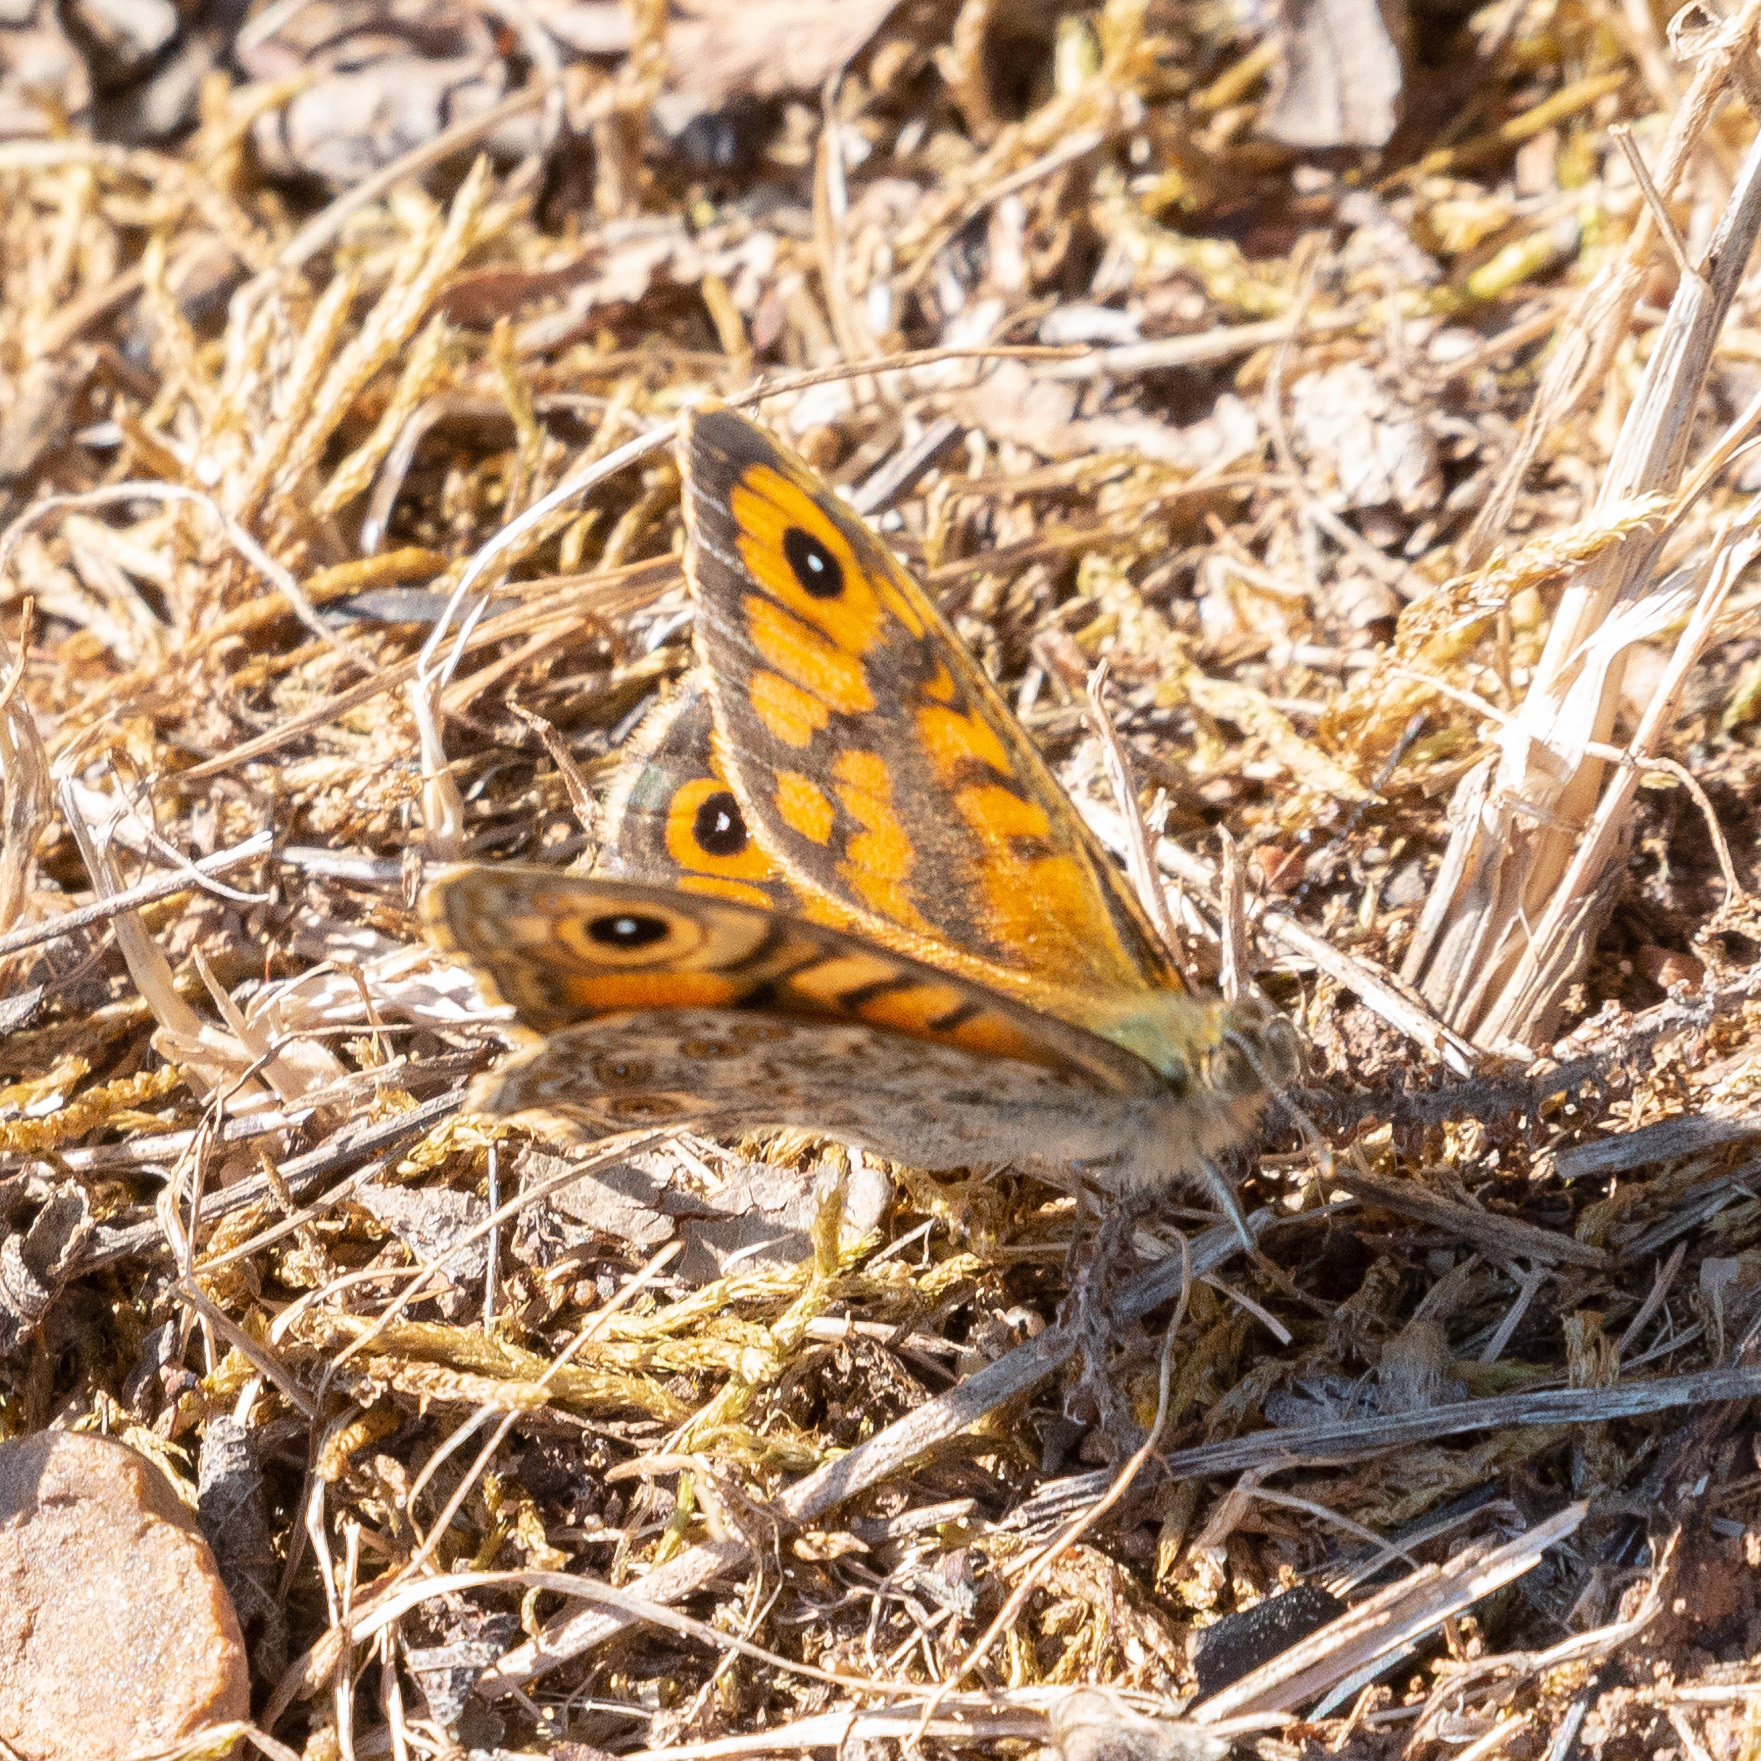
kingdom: Animalia
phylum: Arthropoda
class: Insecta
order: Lepidoptera
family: Nymphalidae
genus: Pararge
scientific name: Pararge Lasiommata megera
